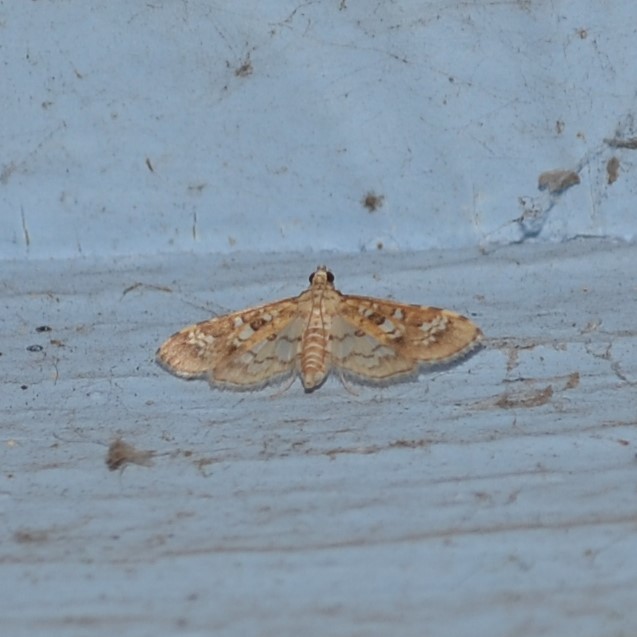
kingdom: Animalia
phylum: Arthropoda
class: Insecta
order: Lepidoptera
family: Crambidae
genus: Samea
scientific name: Samea multiplicalis
